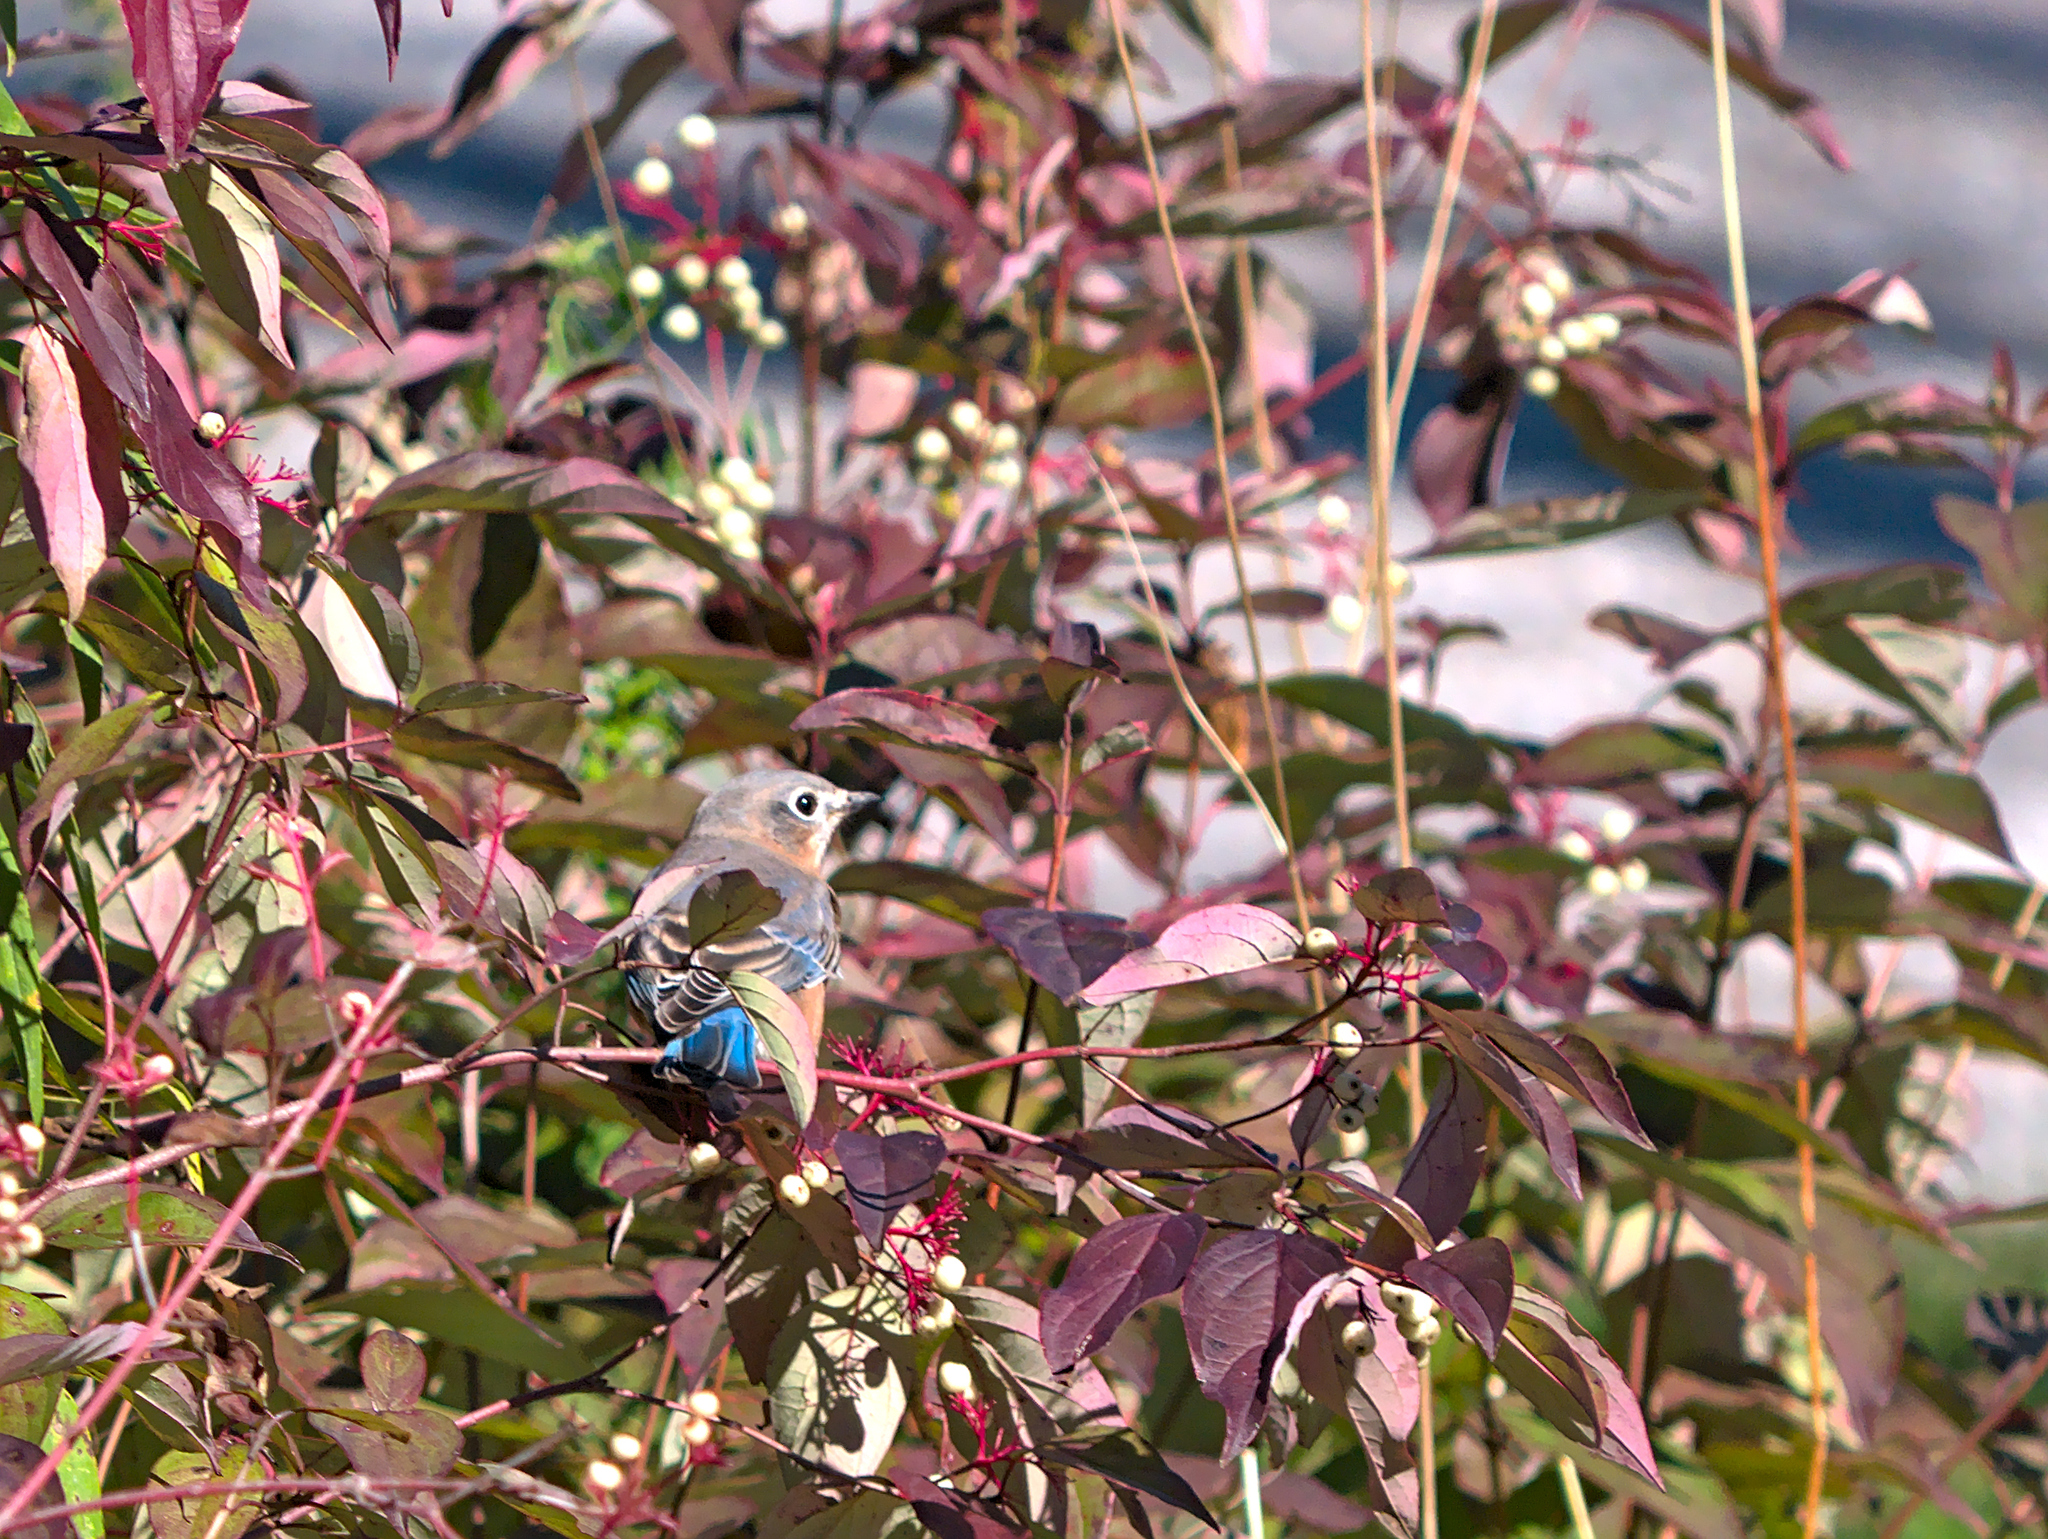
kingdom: Animalia
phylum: Chordata
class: Aves
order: Passeriformes
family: Turdidae
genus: Sialia
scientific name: Sialia sialis
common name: Eastern bluebird
